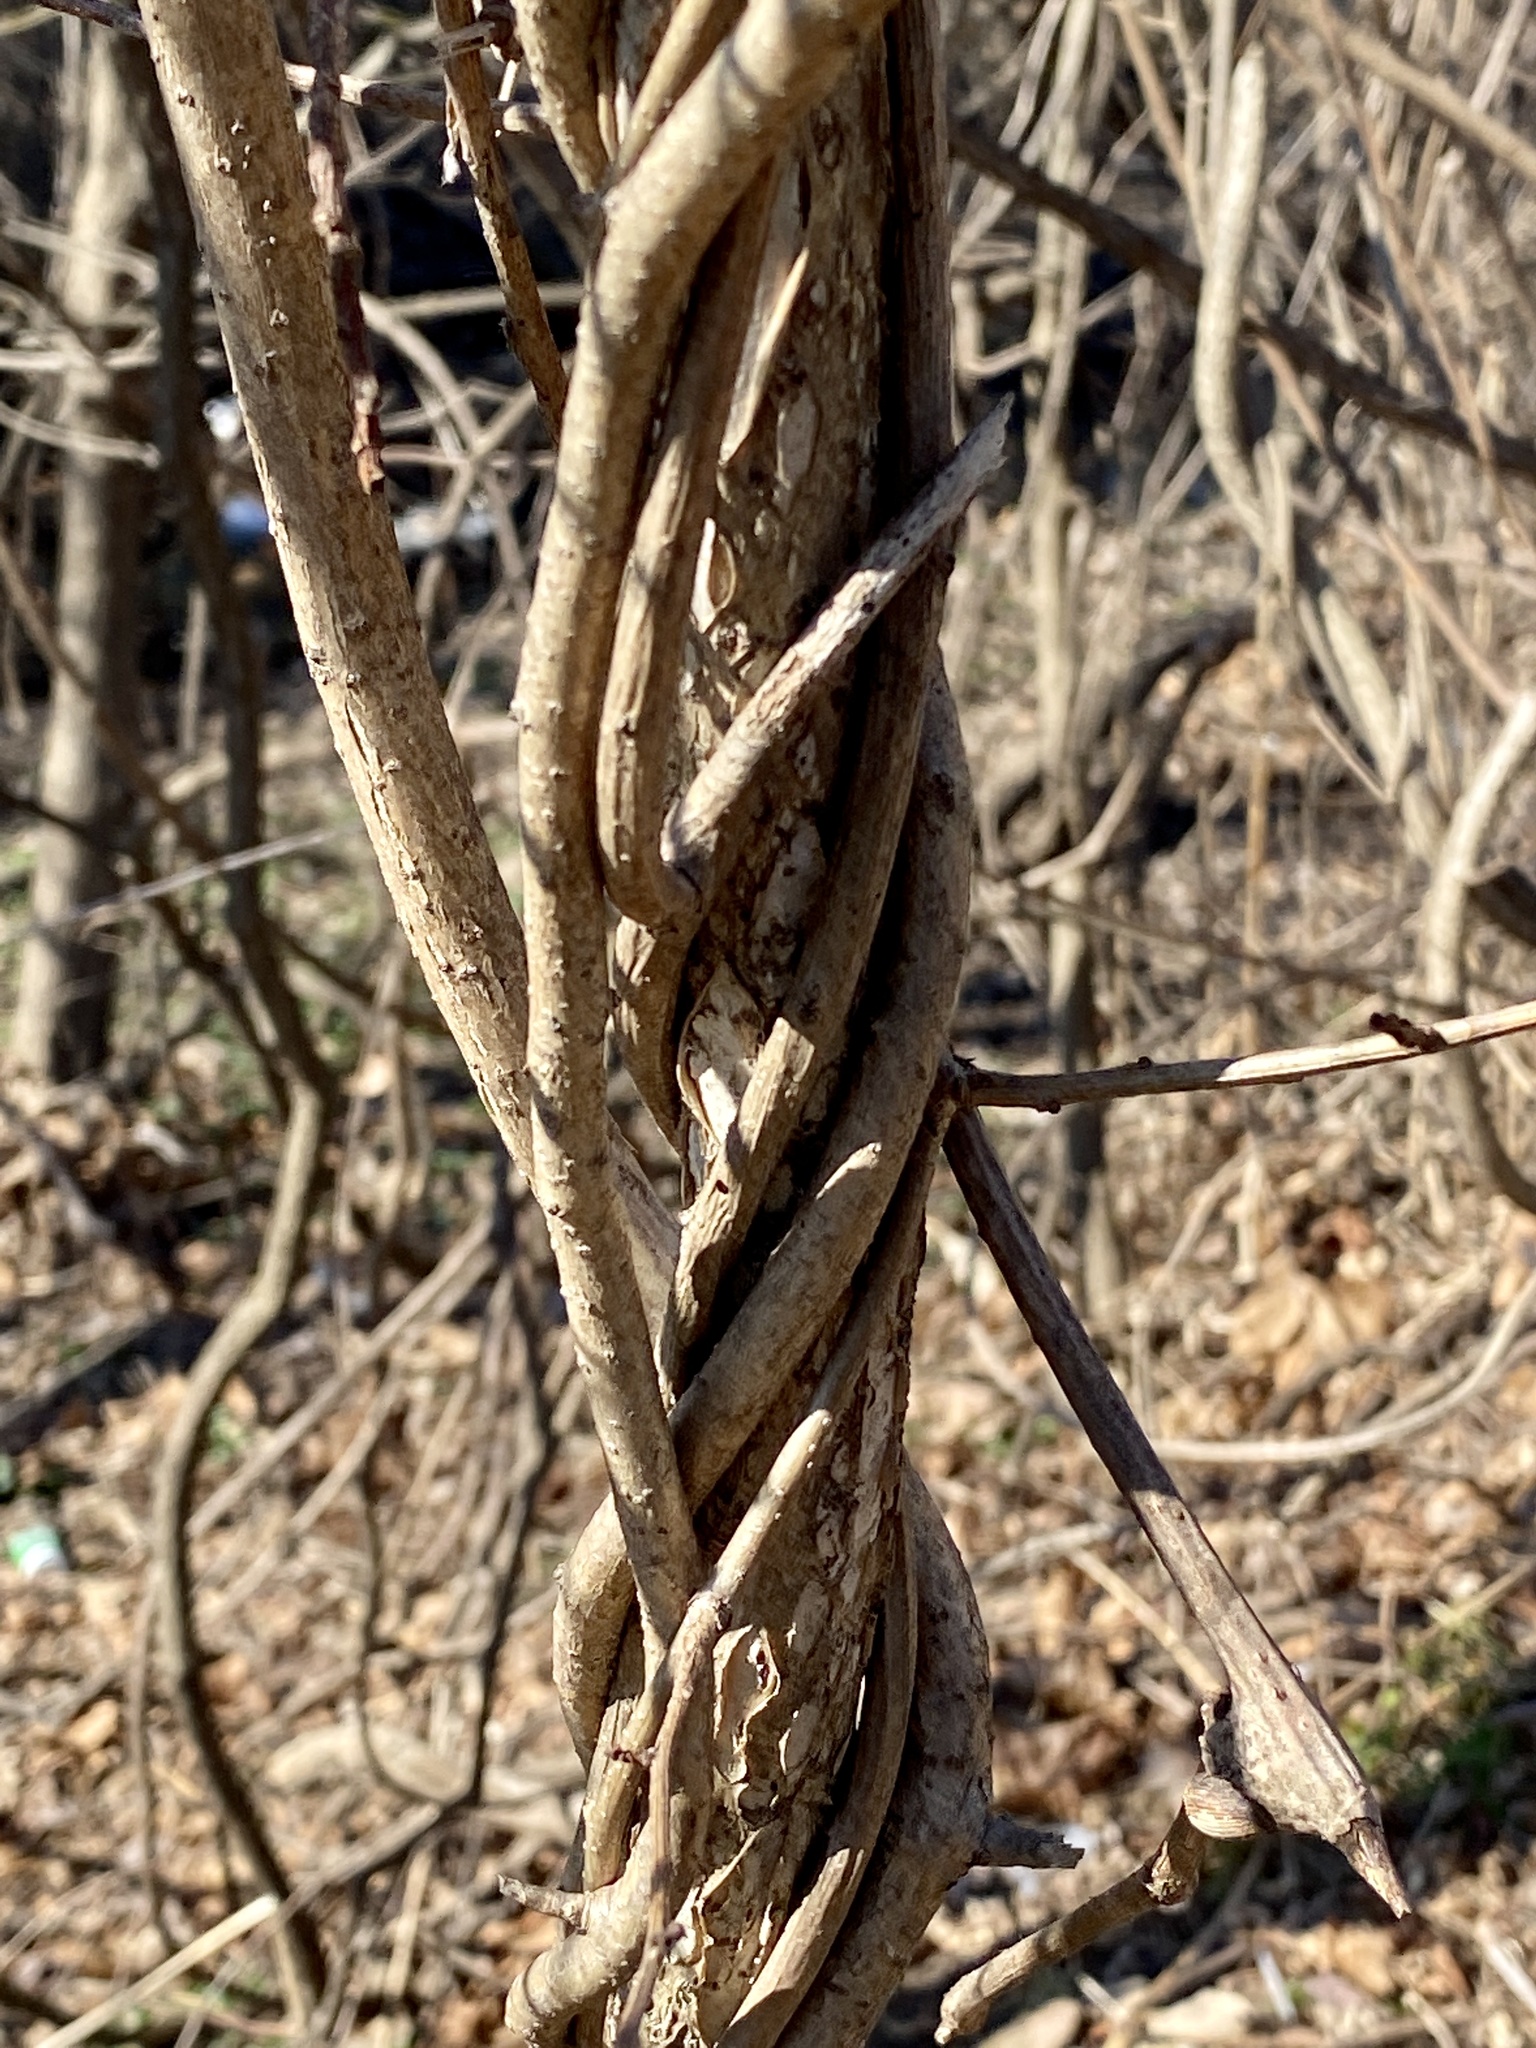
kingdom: Plantae
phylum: Tracheophyta
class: Magnoliopsida
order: Celastrales
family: Celastraceae
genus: Celastrus
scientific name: Celastrus orbiculatus
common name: Oriental bittersweet
